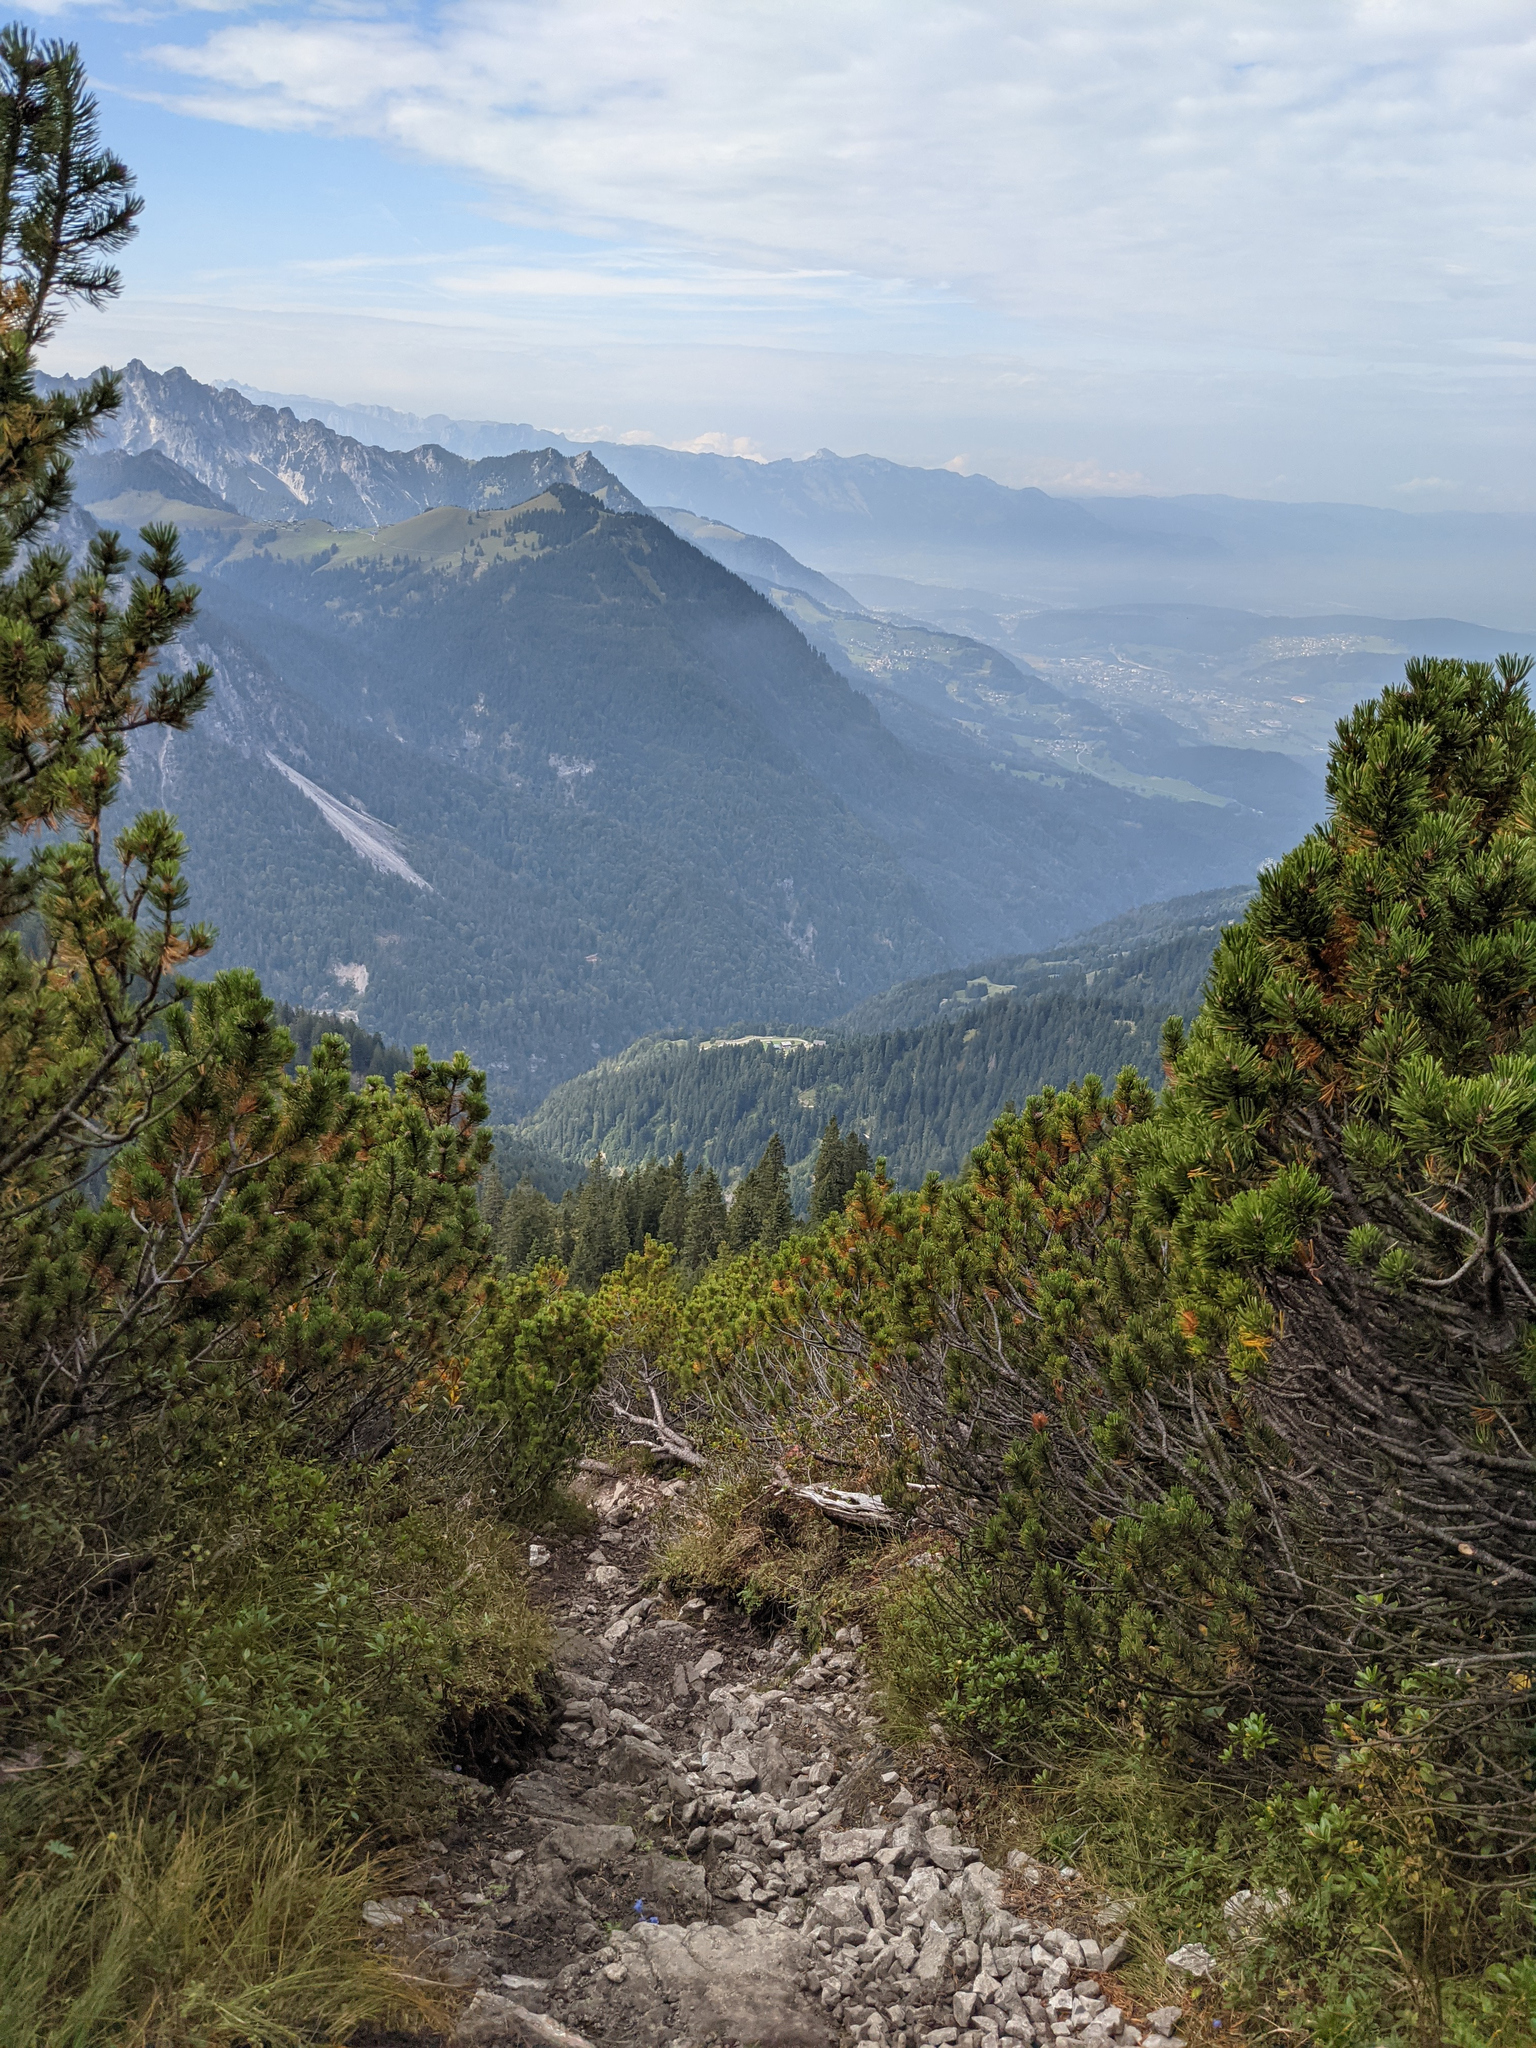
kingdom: Plantae
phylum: Tracheophyta
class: Pinopsida
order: Pinales
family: Pinaceae
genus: Pinus
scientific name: Pinus mugo
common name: Mugo pine
